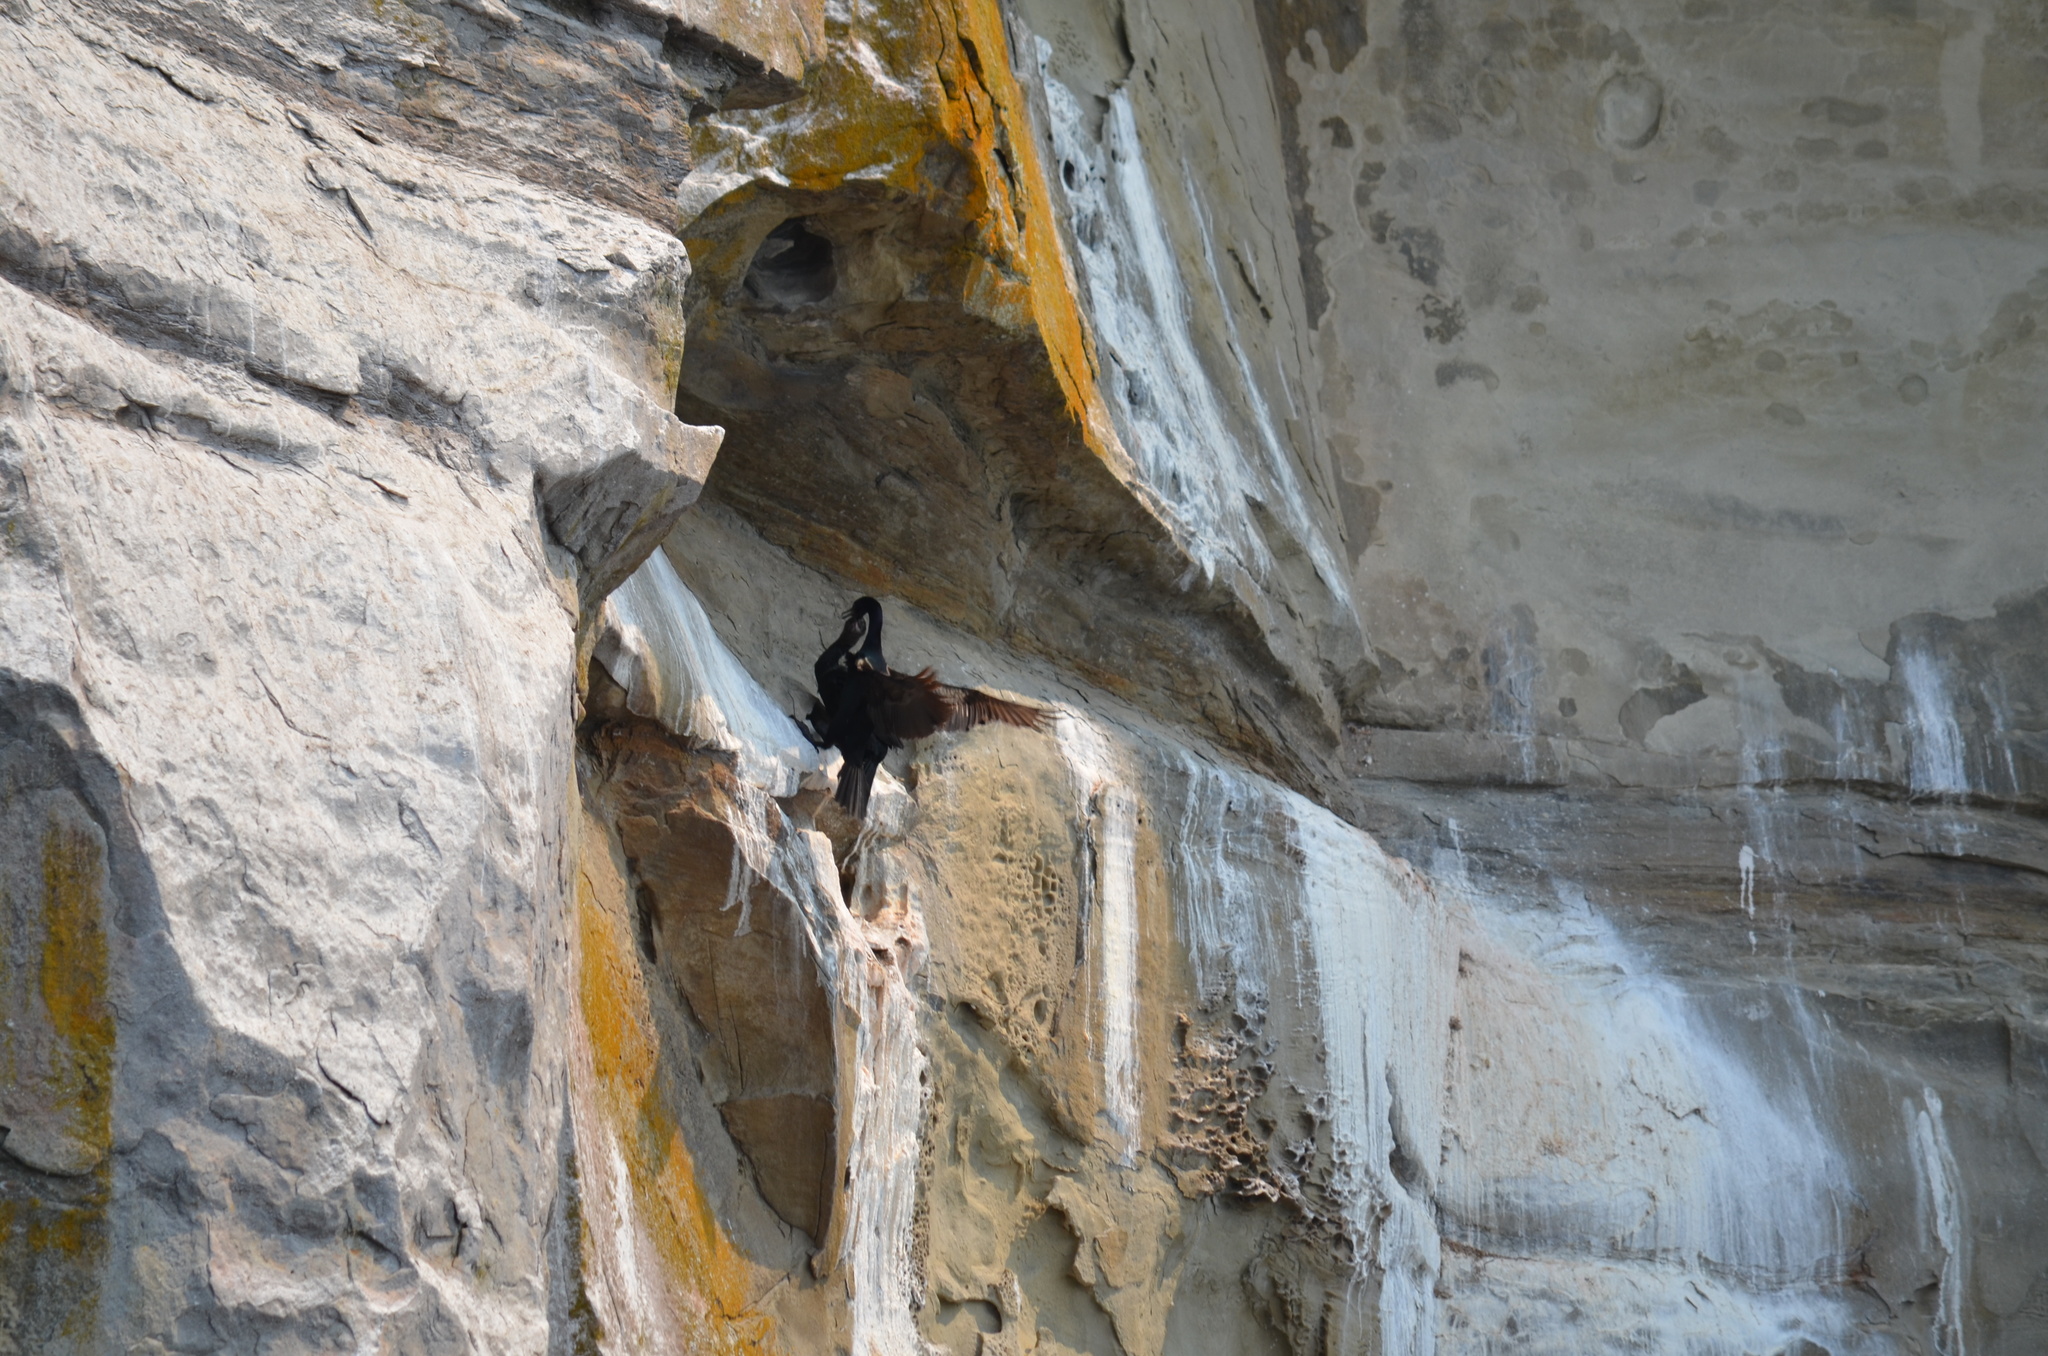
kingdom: Animalia
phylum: Chordata
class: Aves
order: Suliformes
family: Phalacrocoracidae
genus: Phalacrocorax
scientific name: Phalacrocorax pelagicus
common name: Pelagic cormorant
